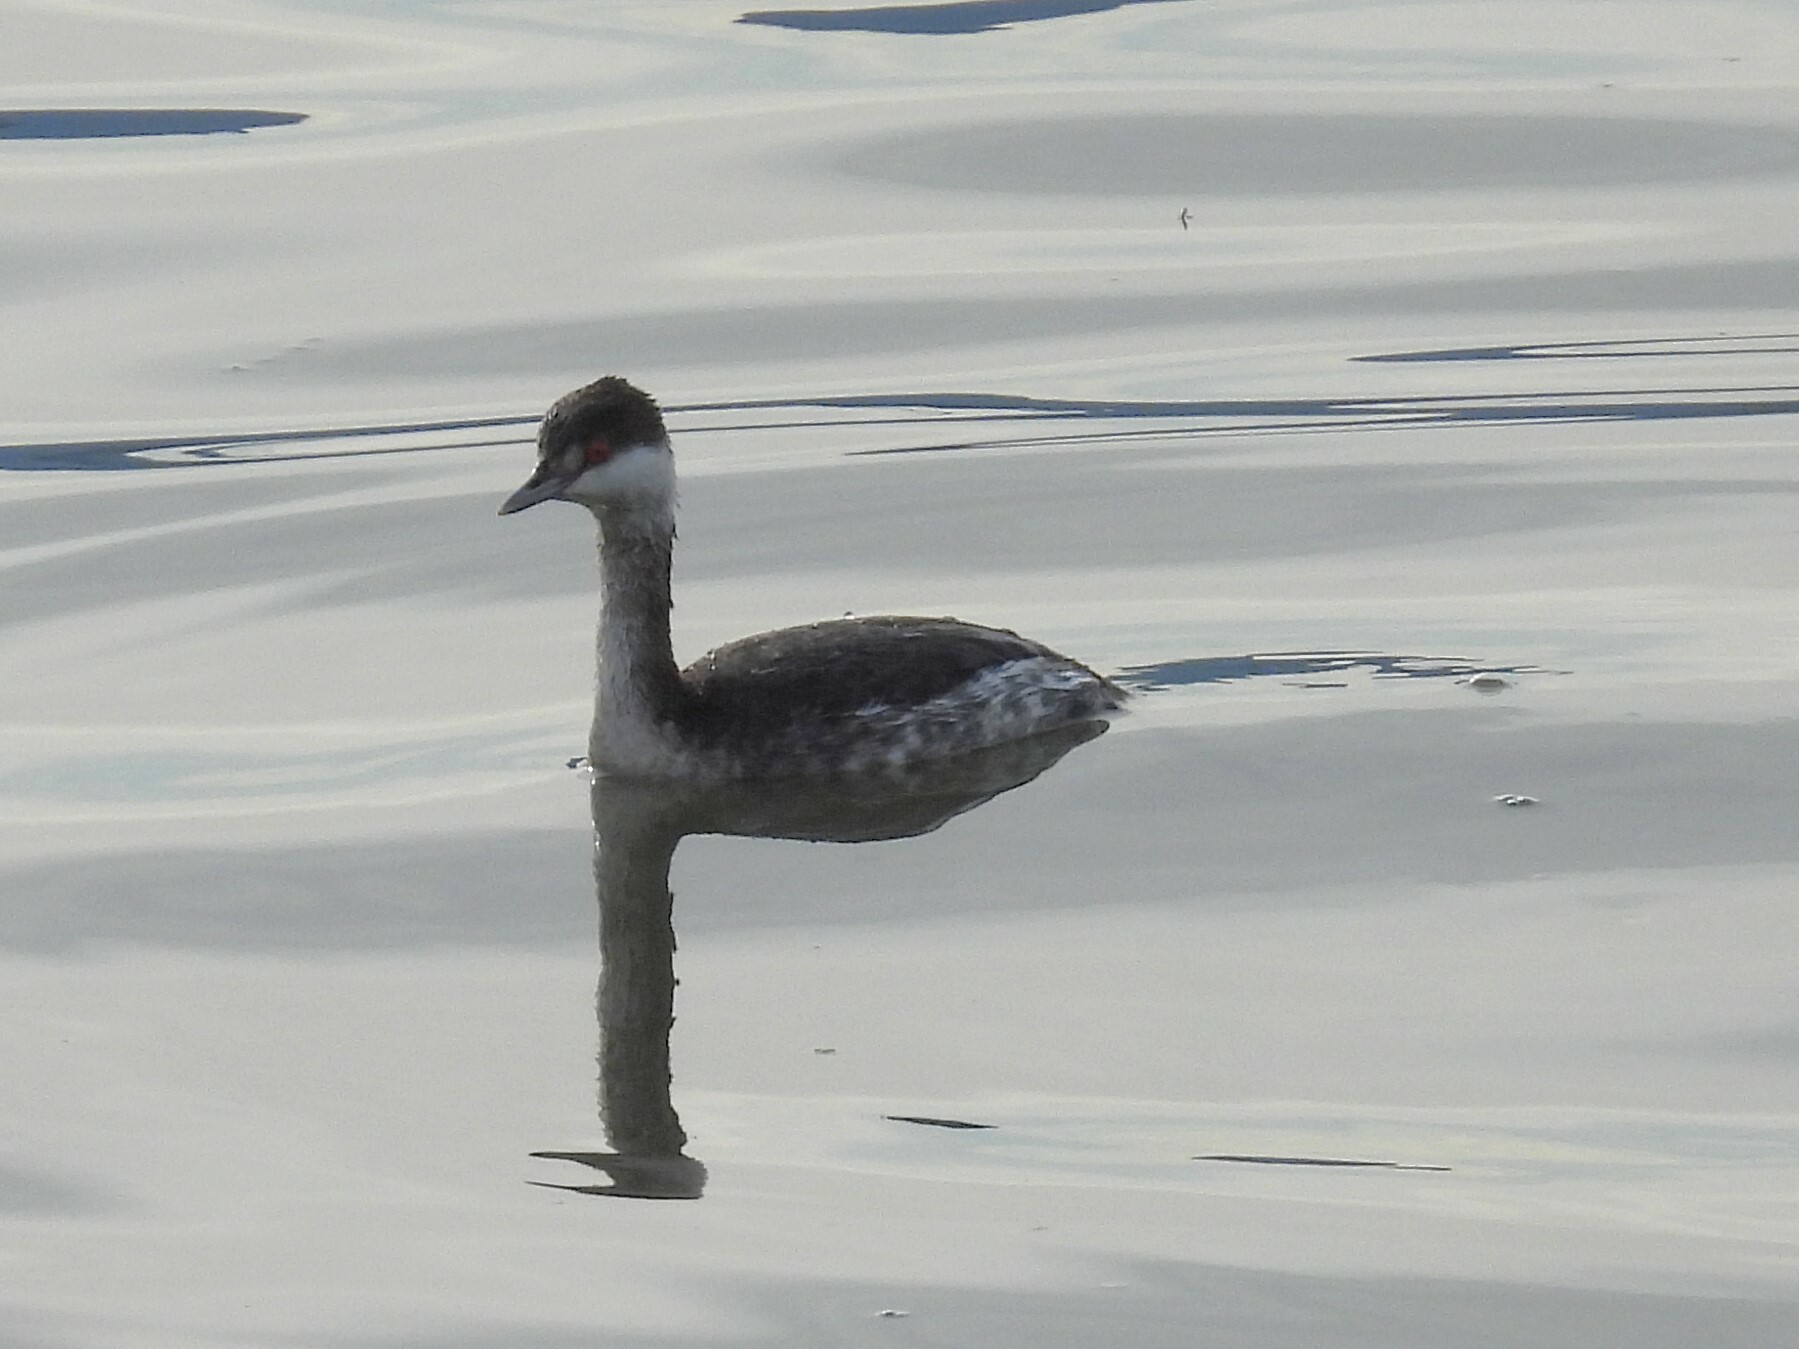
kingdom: Animalia
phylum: Chordata
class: Aves
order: Podicipediformes
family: Podicipedidae
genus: Podiceps
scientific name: Podiceps auritus
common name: Horned grebe
